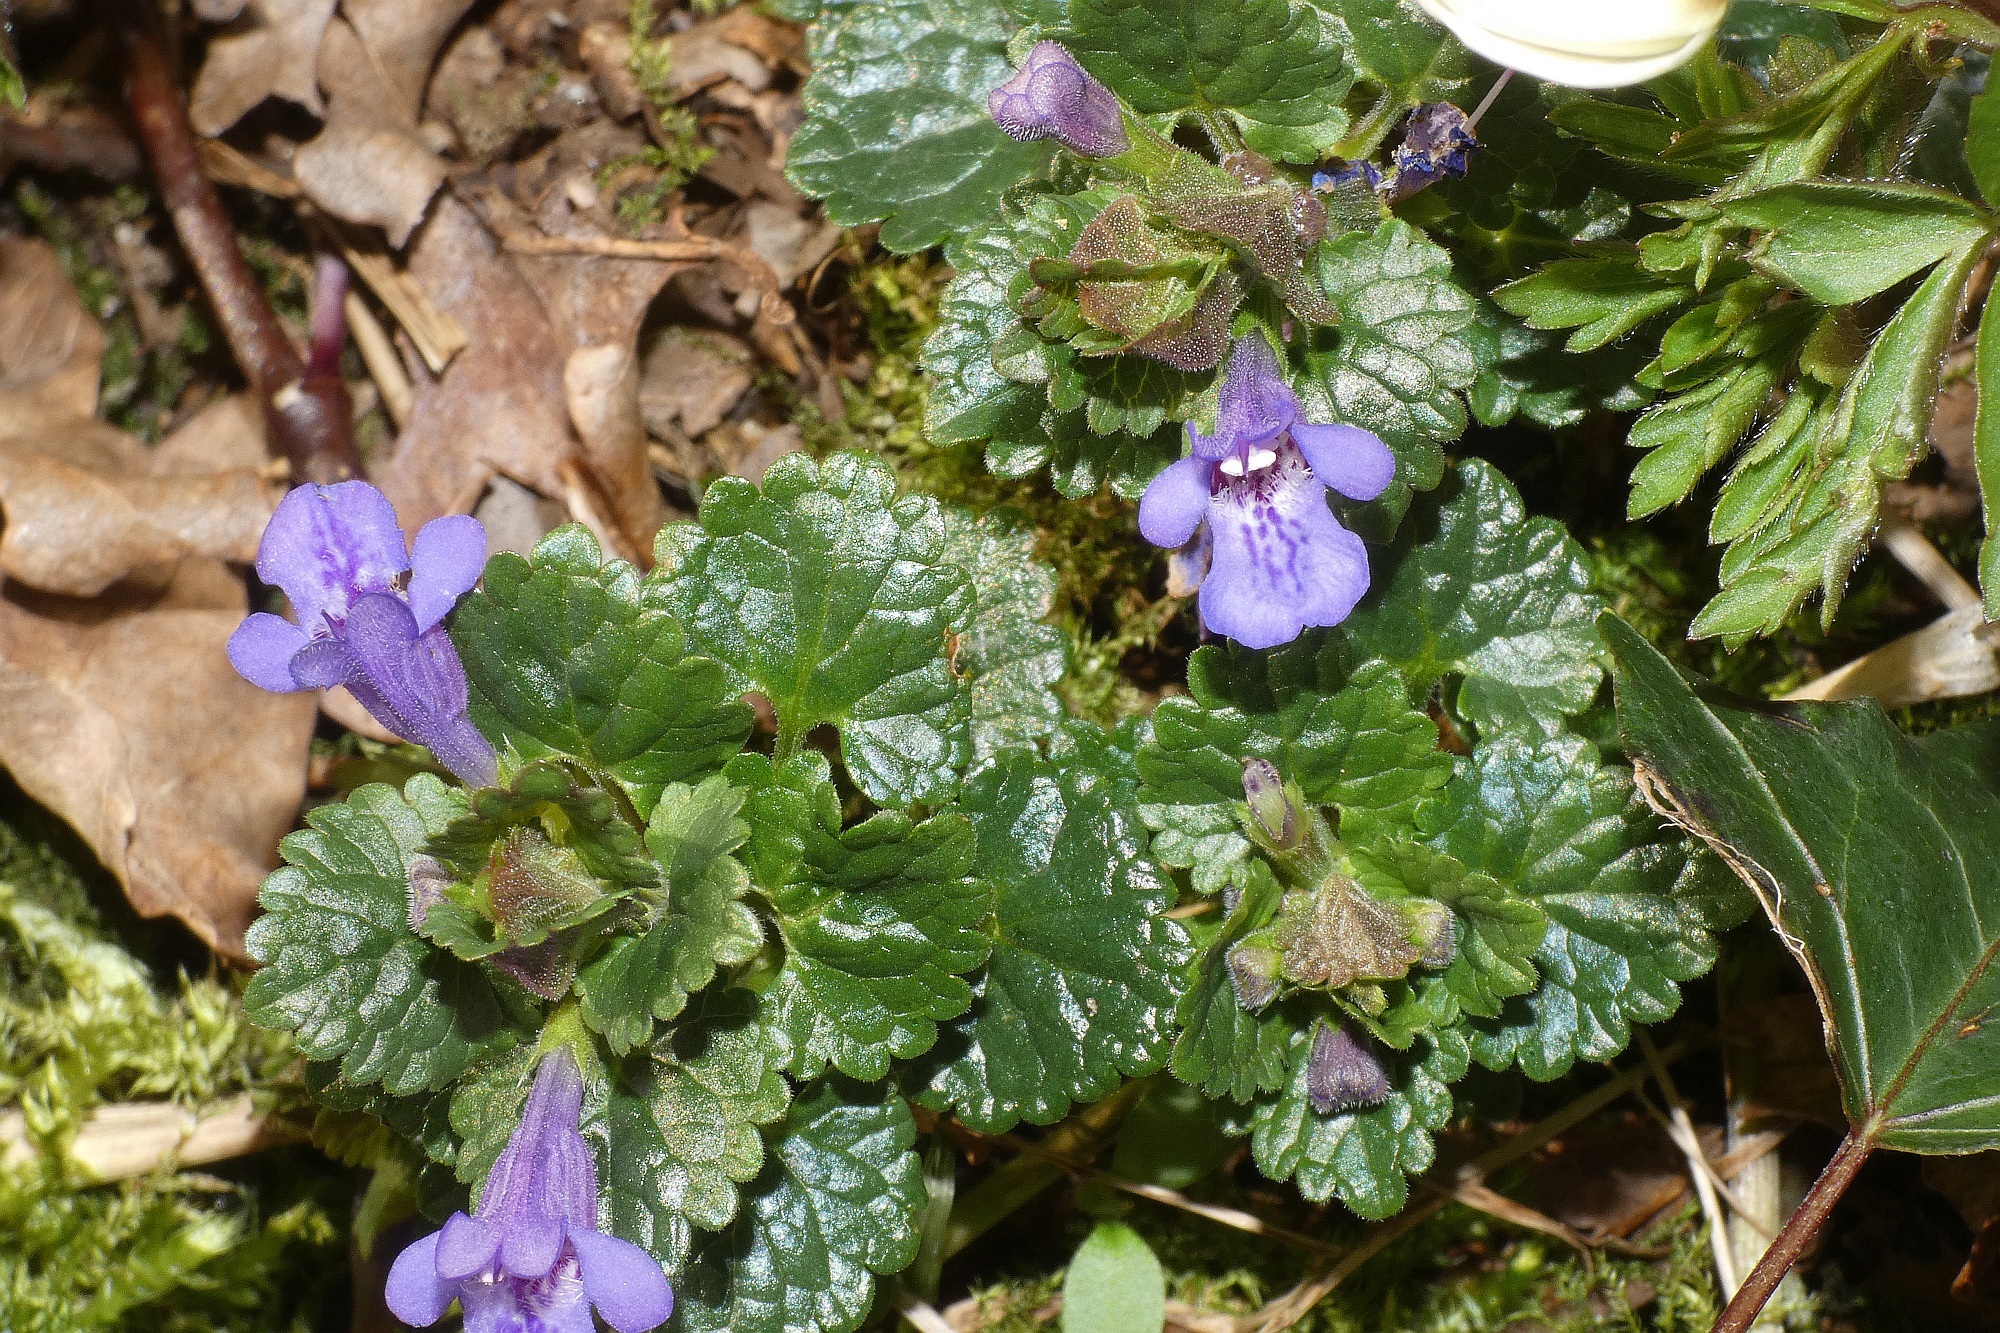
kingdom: Plantae
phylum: Tracheophyta
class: Magnoliopsida
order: Lamiales
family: Lamiaceae
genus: Glechoma
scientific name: Glechoma hederacea
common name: Ground ivy
